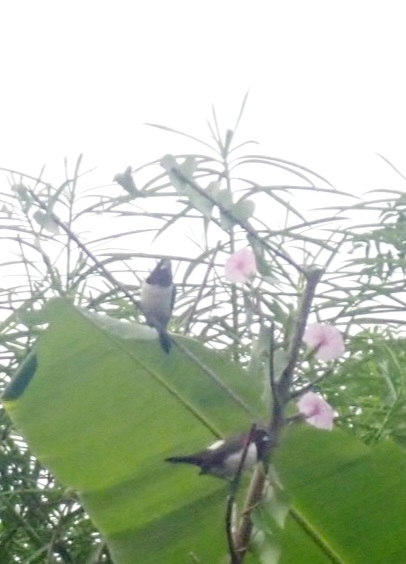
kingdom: Animalia
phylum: Chordata
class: Aves
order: Passeriformes
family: Estrildidae
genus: Lonchura
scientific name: Lonchura striata
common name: White-rumped munia
